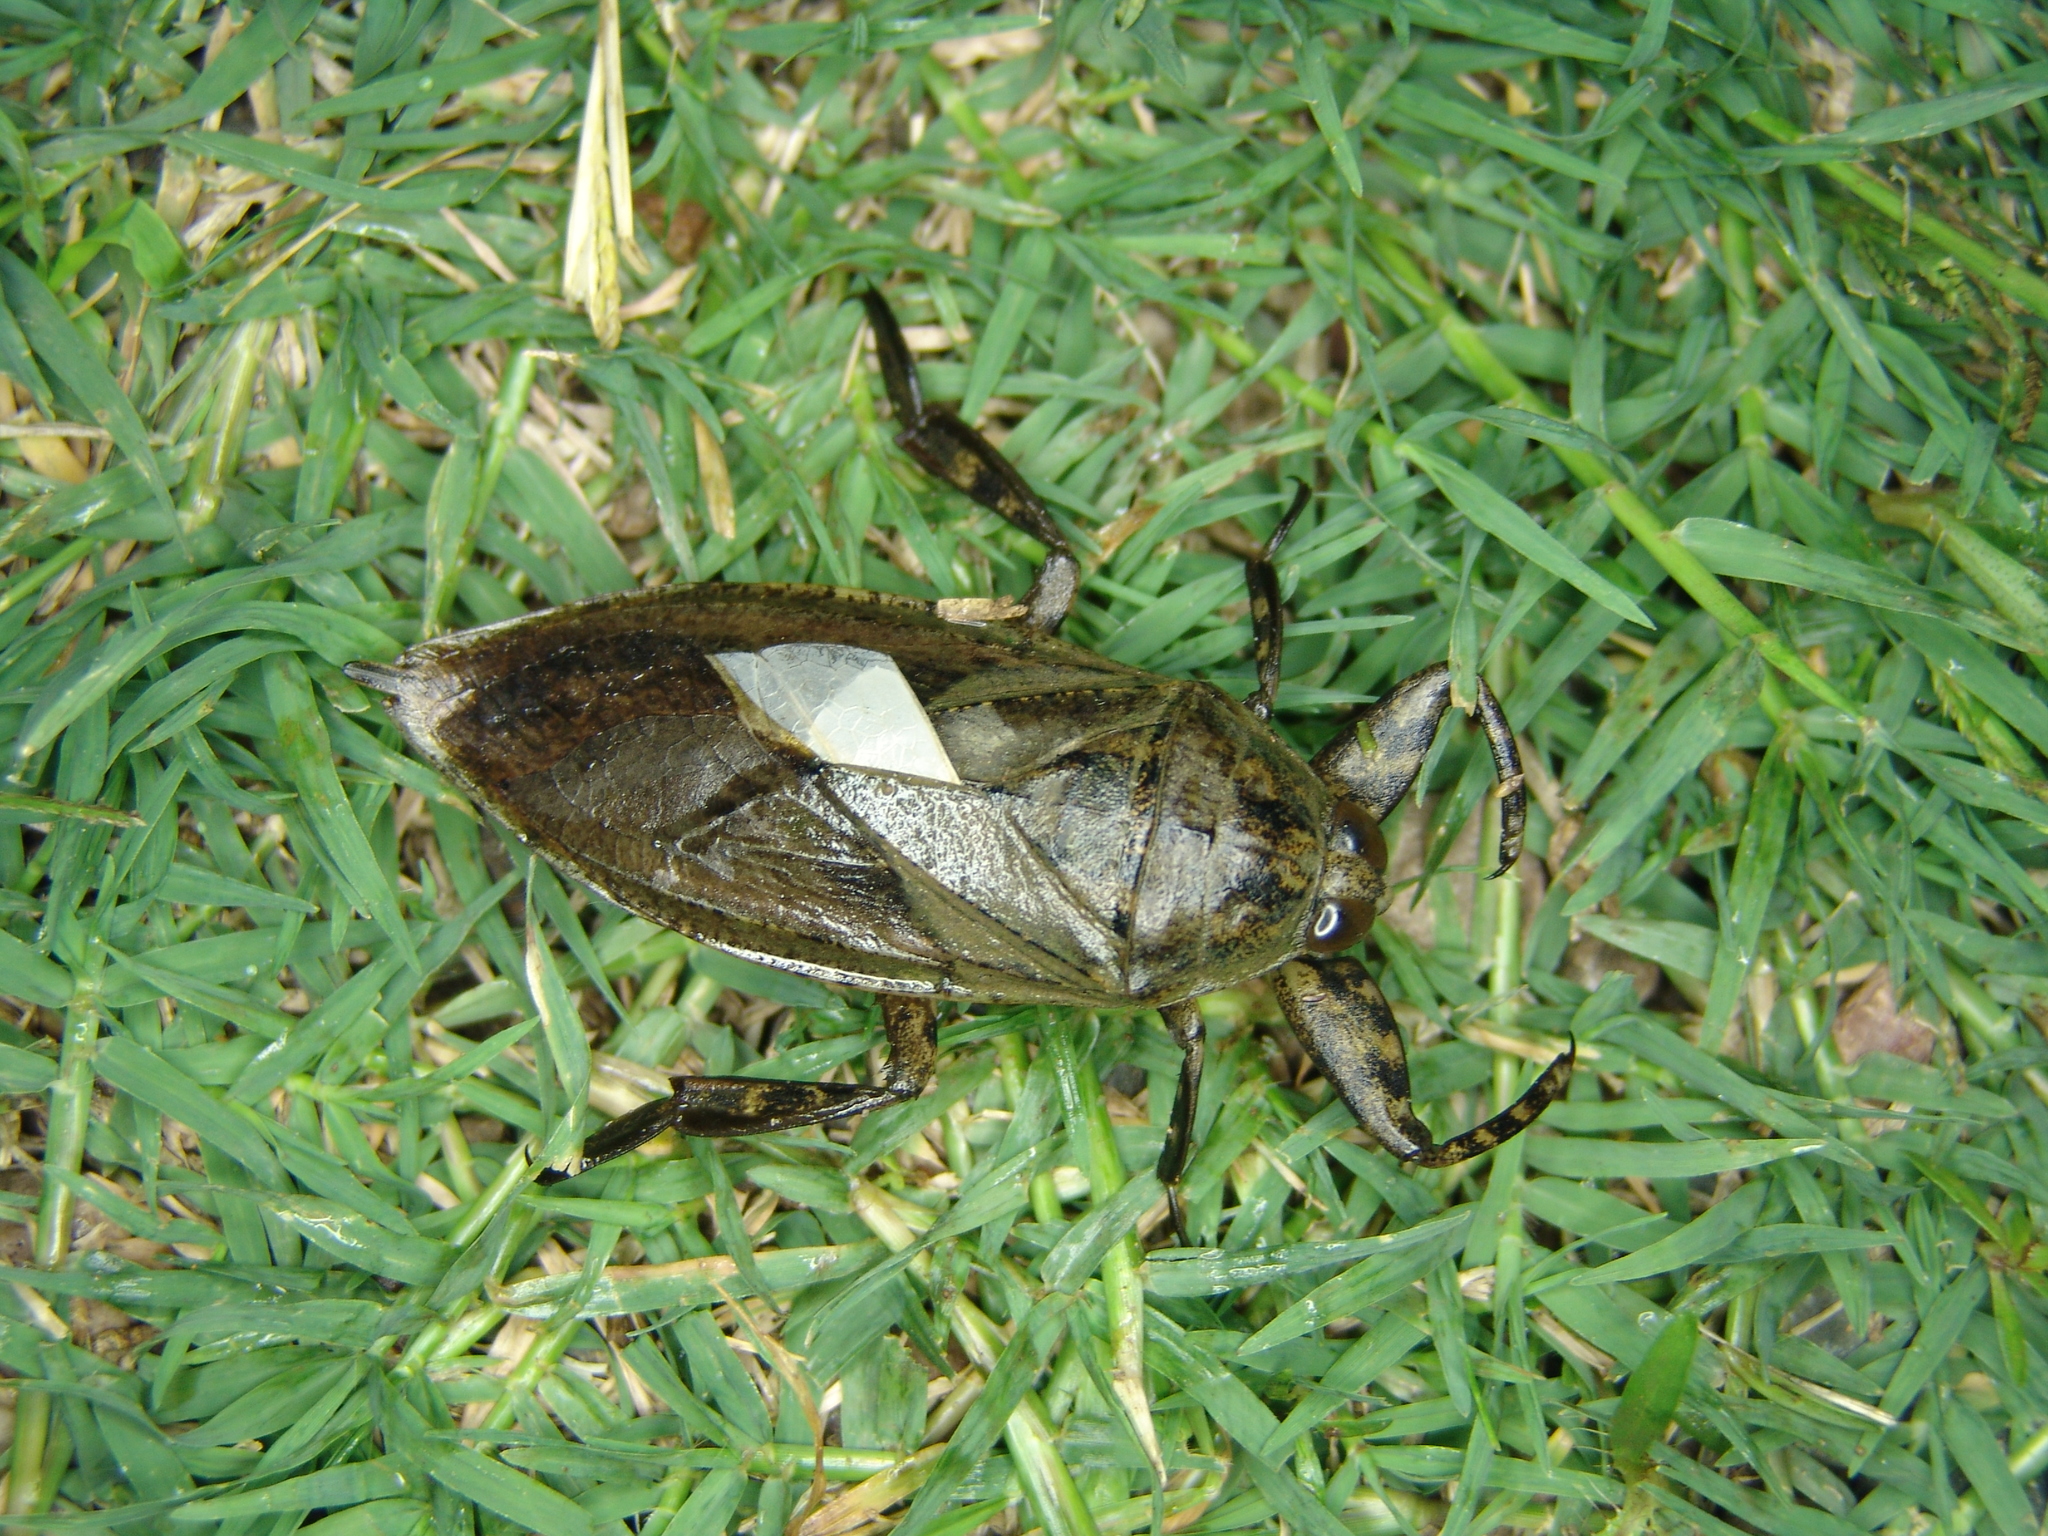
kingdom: Animalia
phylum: Arthropoda
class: Insecta
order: Hemiptera
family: Belostomatidae
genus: Lethocerus
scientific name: Lethocerus medius
